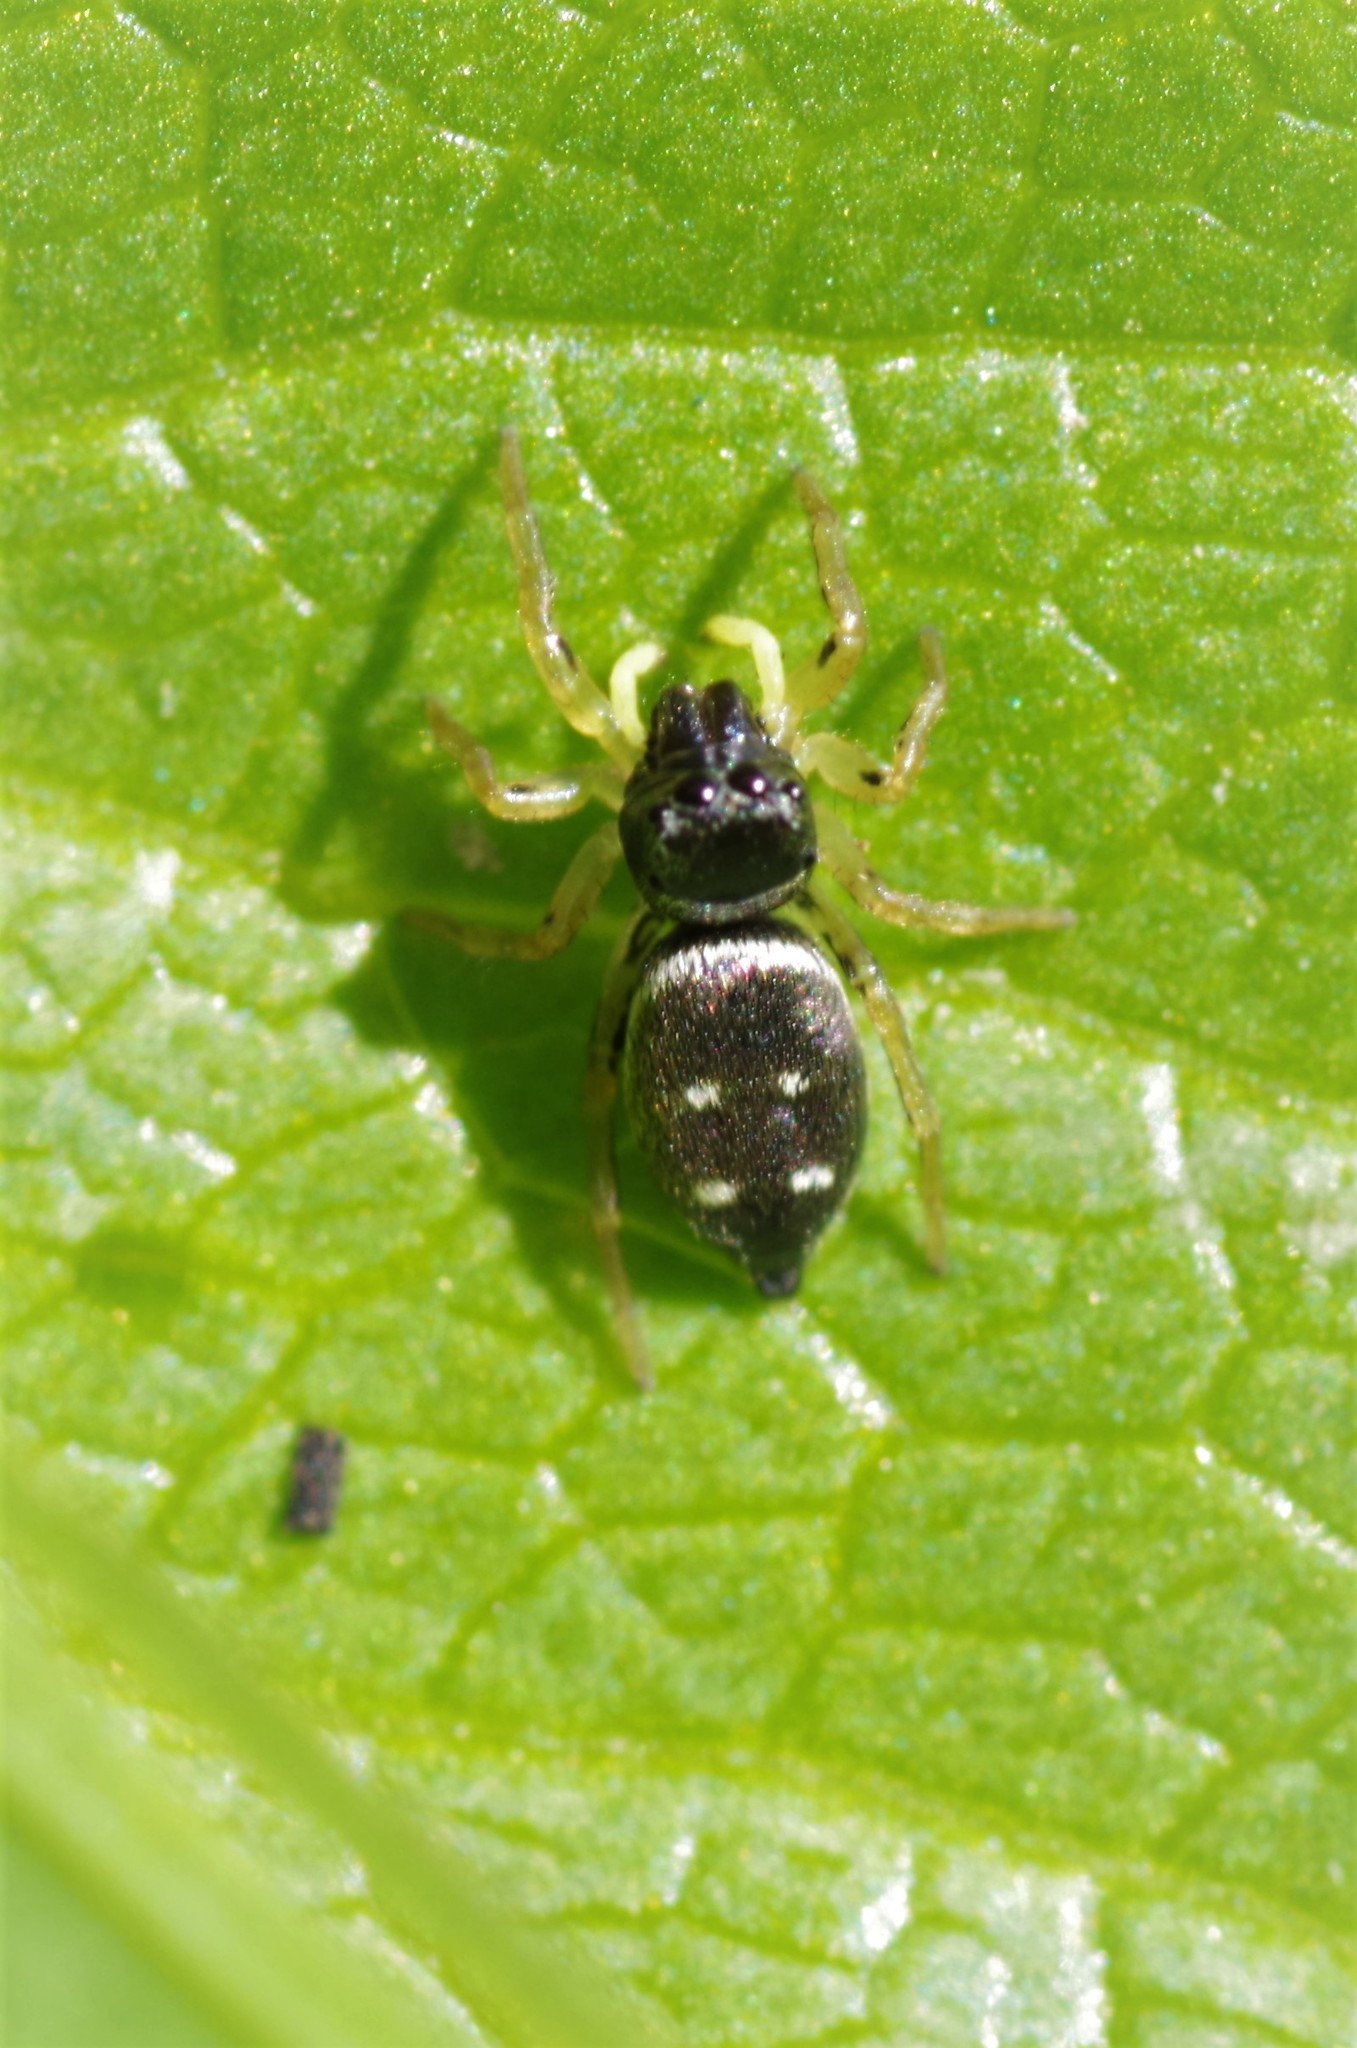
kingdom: Animalia
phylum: Arthropoda
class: Arachnida
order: Araneae
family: Salticidae
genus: Heliophanus
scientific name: Heliophanus cupreus
